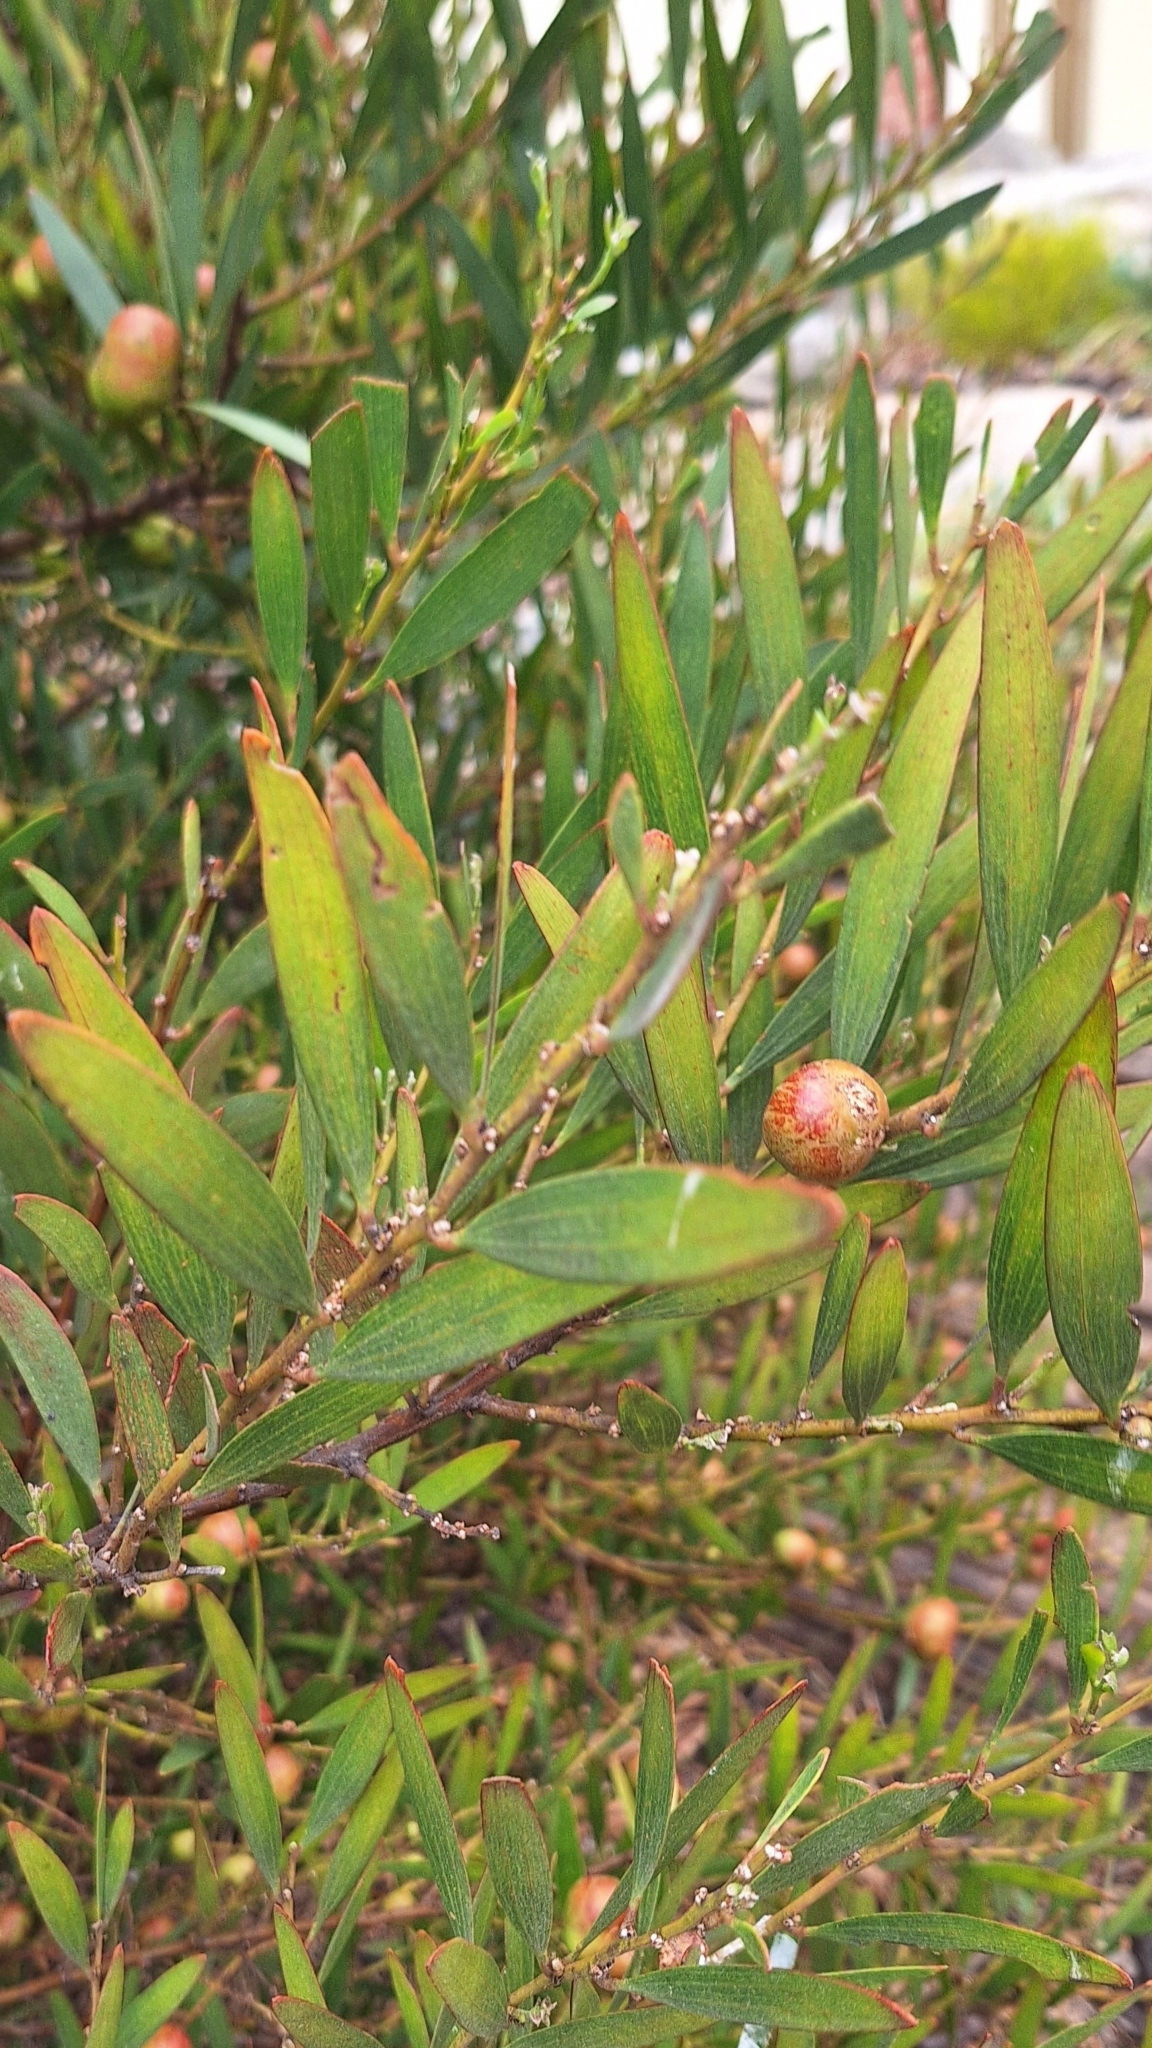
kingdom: Plantae
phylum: Tracheophyta
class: Magnoliopsida
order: Fabales
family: Fabaceae
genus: Acacia
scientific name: Acacia longifolia
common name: Sydney golden wattle
